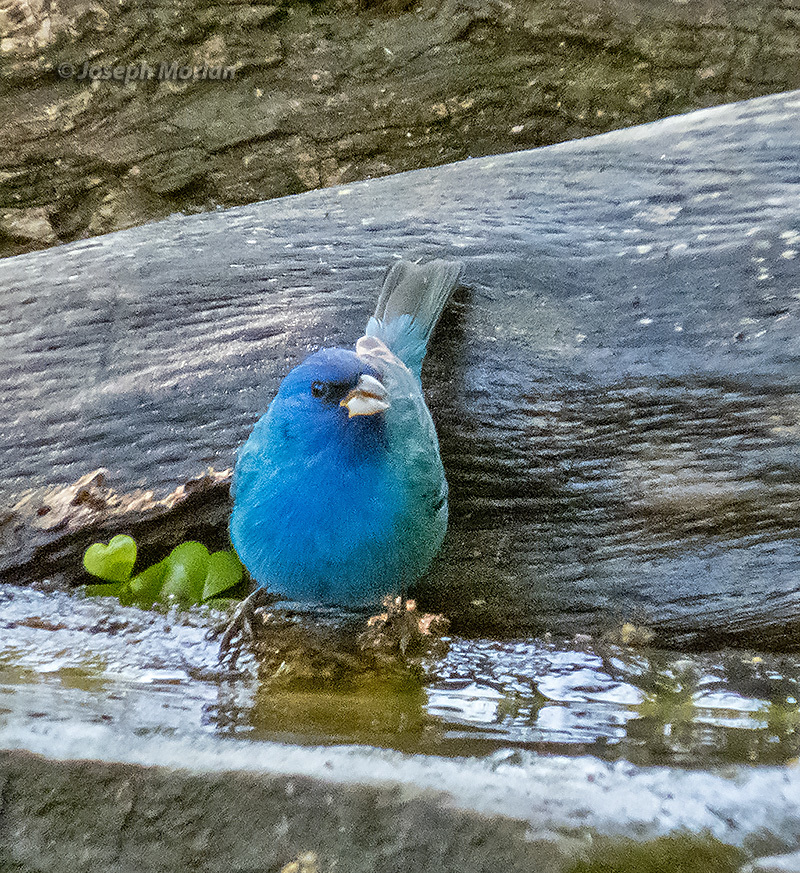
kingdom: Animalia
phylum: Chordata
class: Aves
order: Passeriformes
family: Cardinalidae
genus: Passerina
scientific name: Passerina cyanea
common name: Indigo bunting
